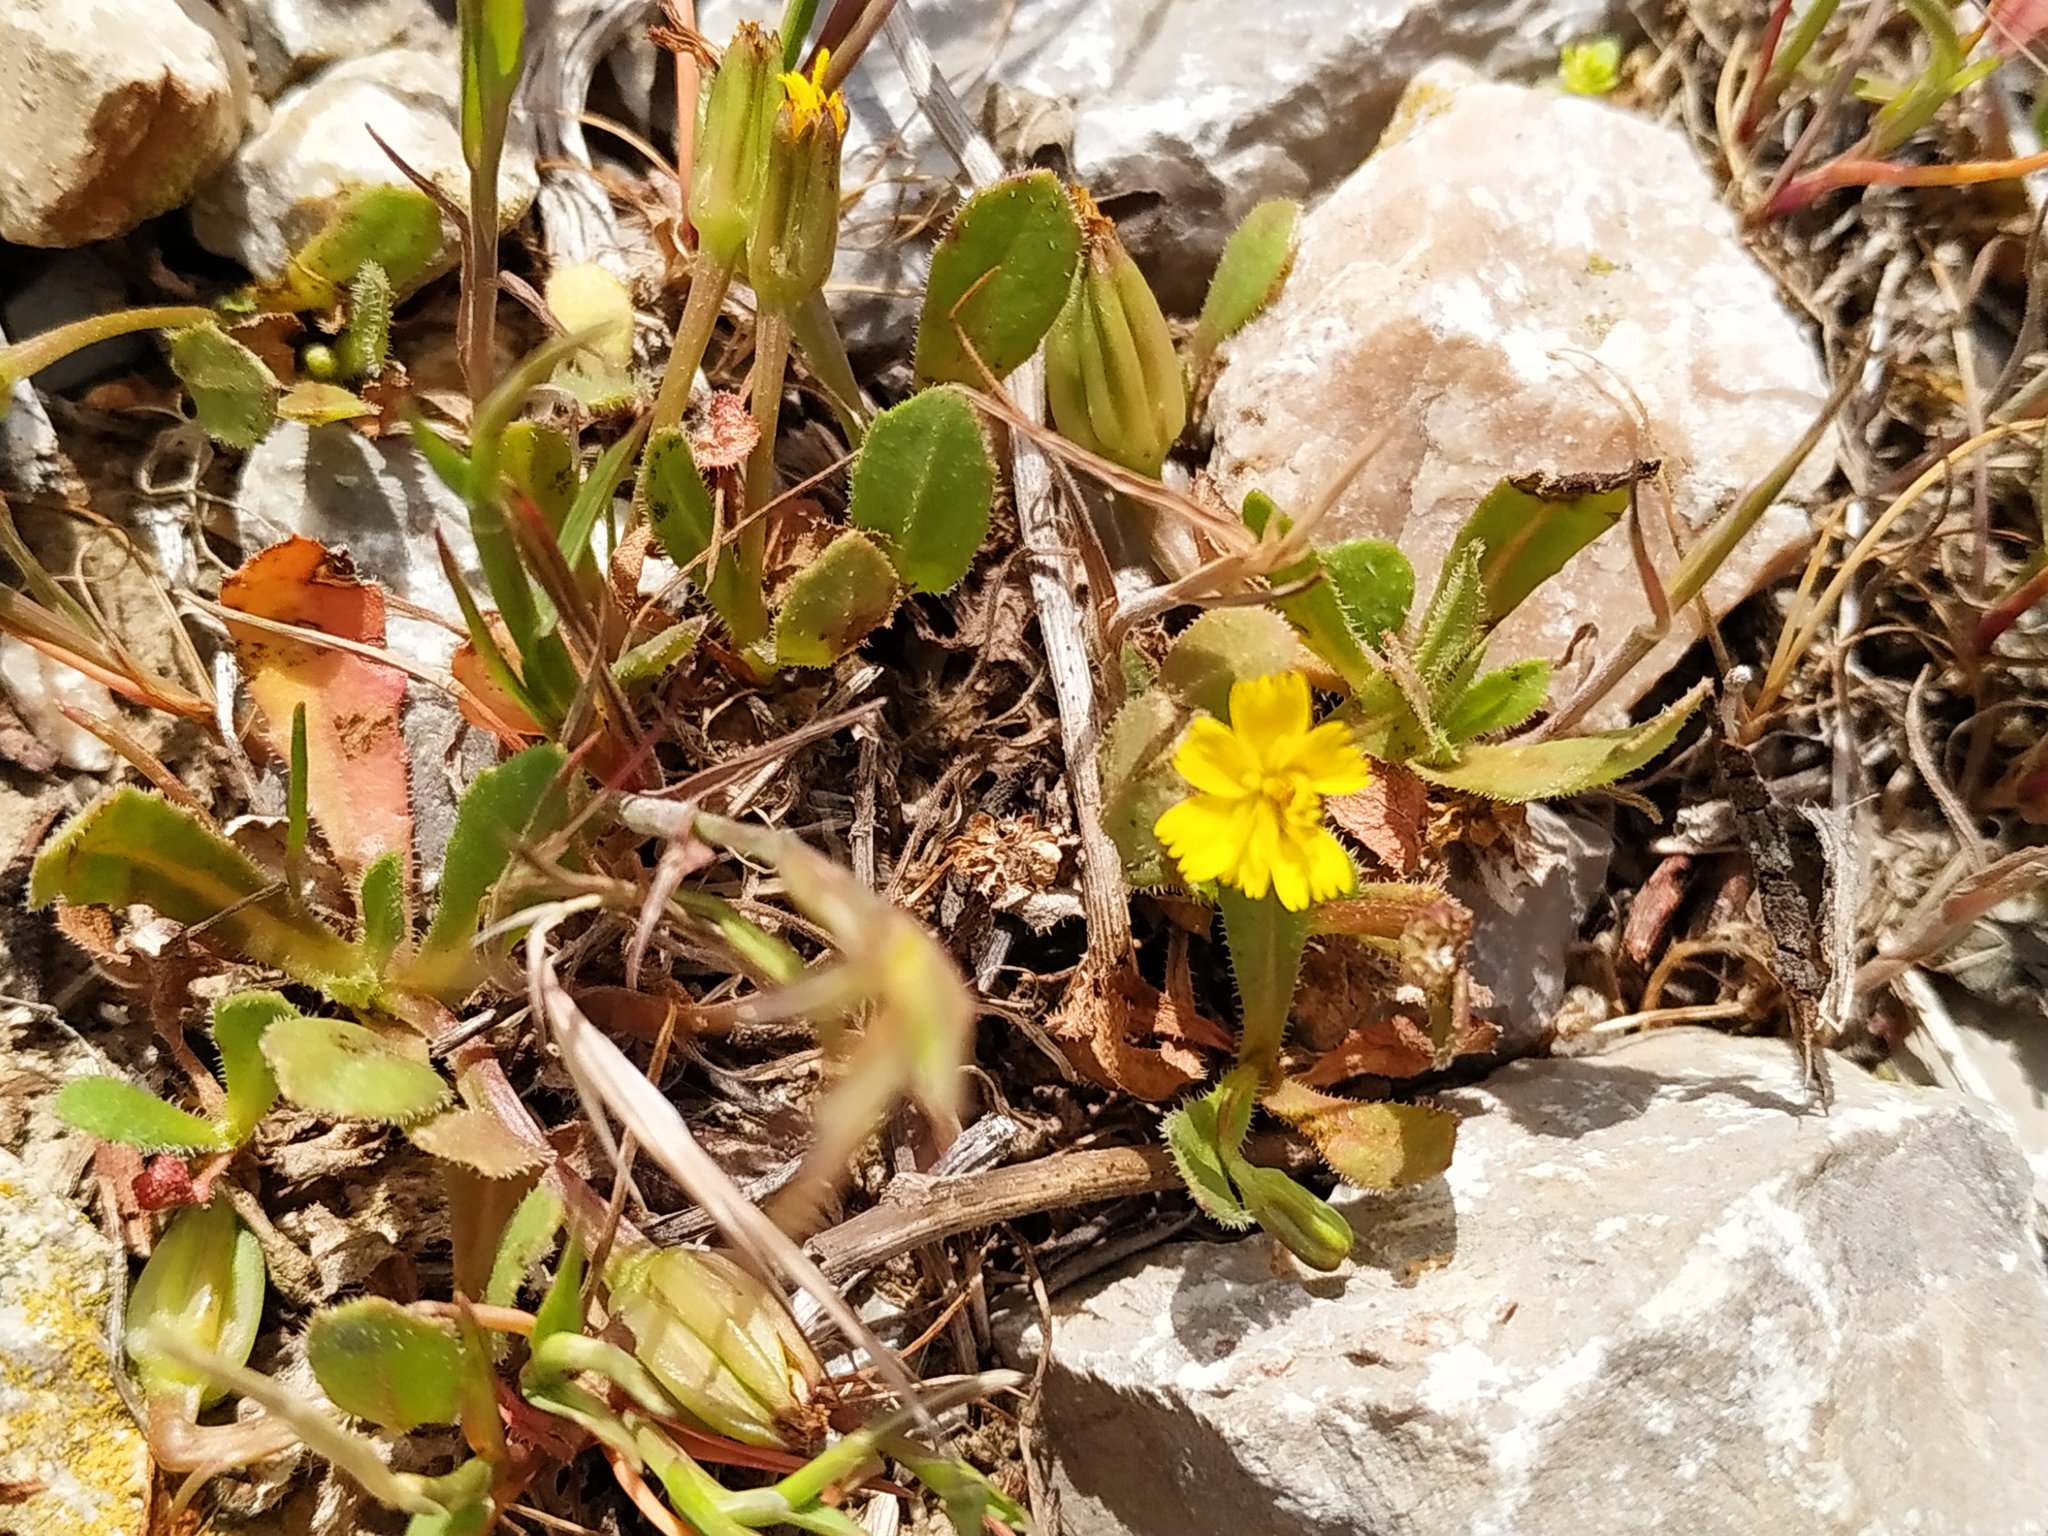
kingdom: Plantae
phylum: Tracheophyta
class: Magnoliopsida
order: Asterales
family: Asteraceae
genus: Hedypnois
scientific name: Hedypnois rhagadioloides
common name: Cretan weed
